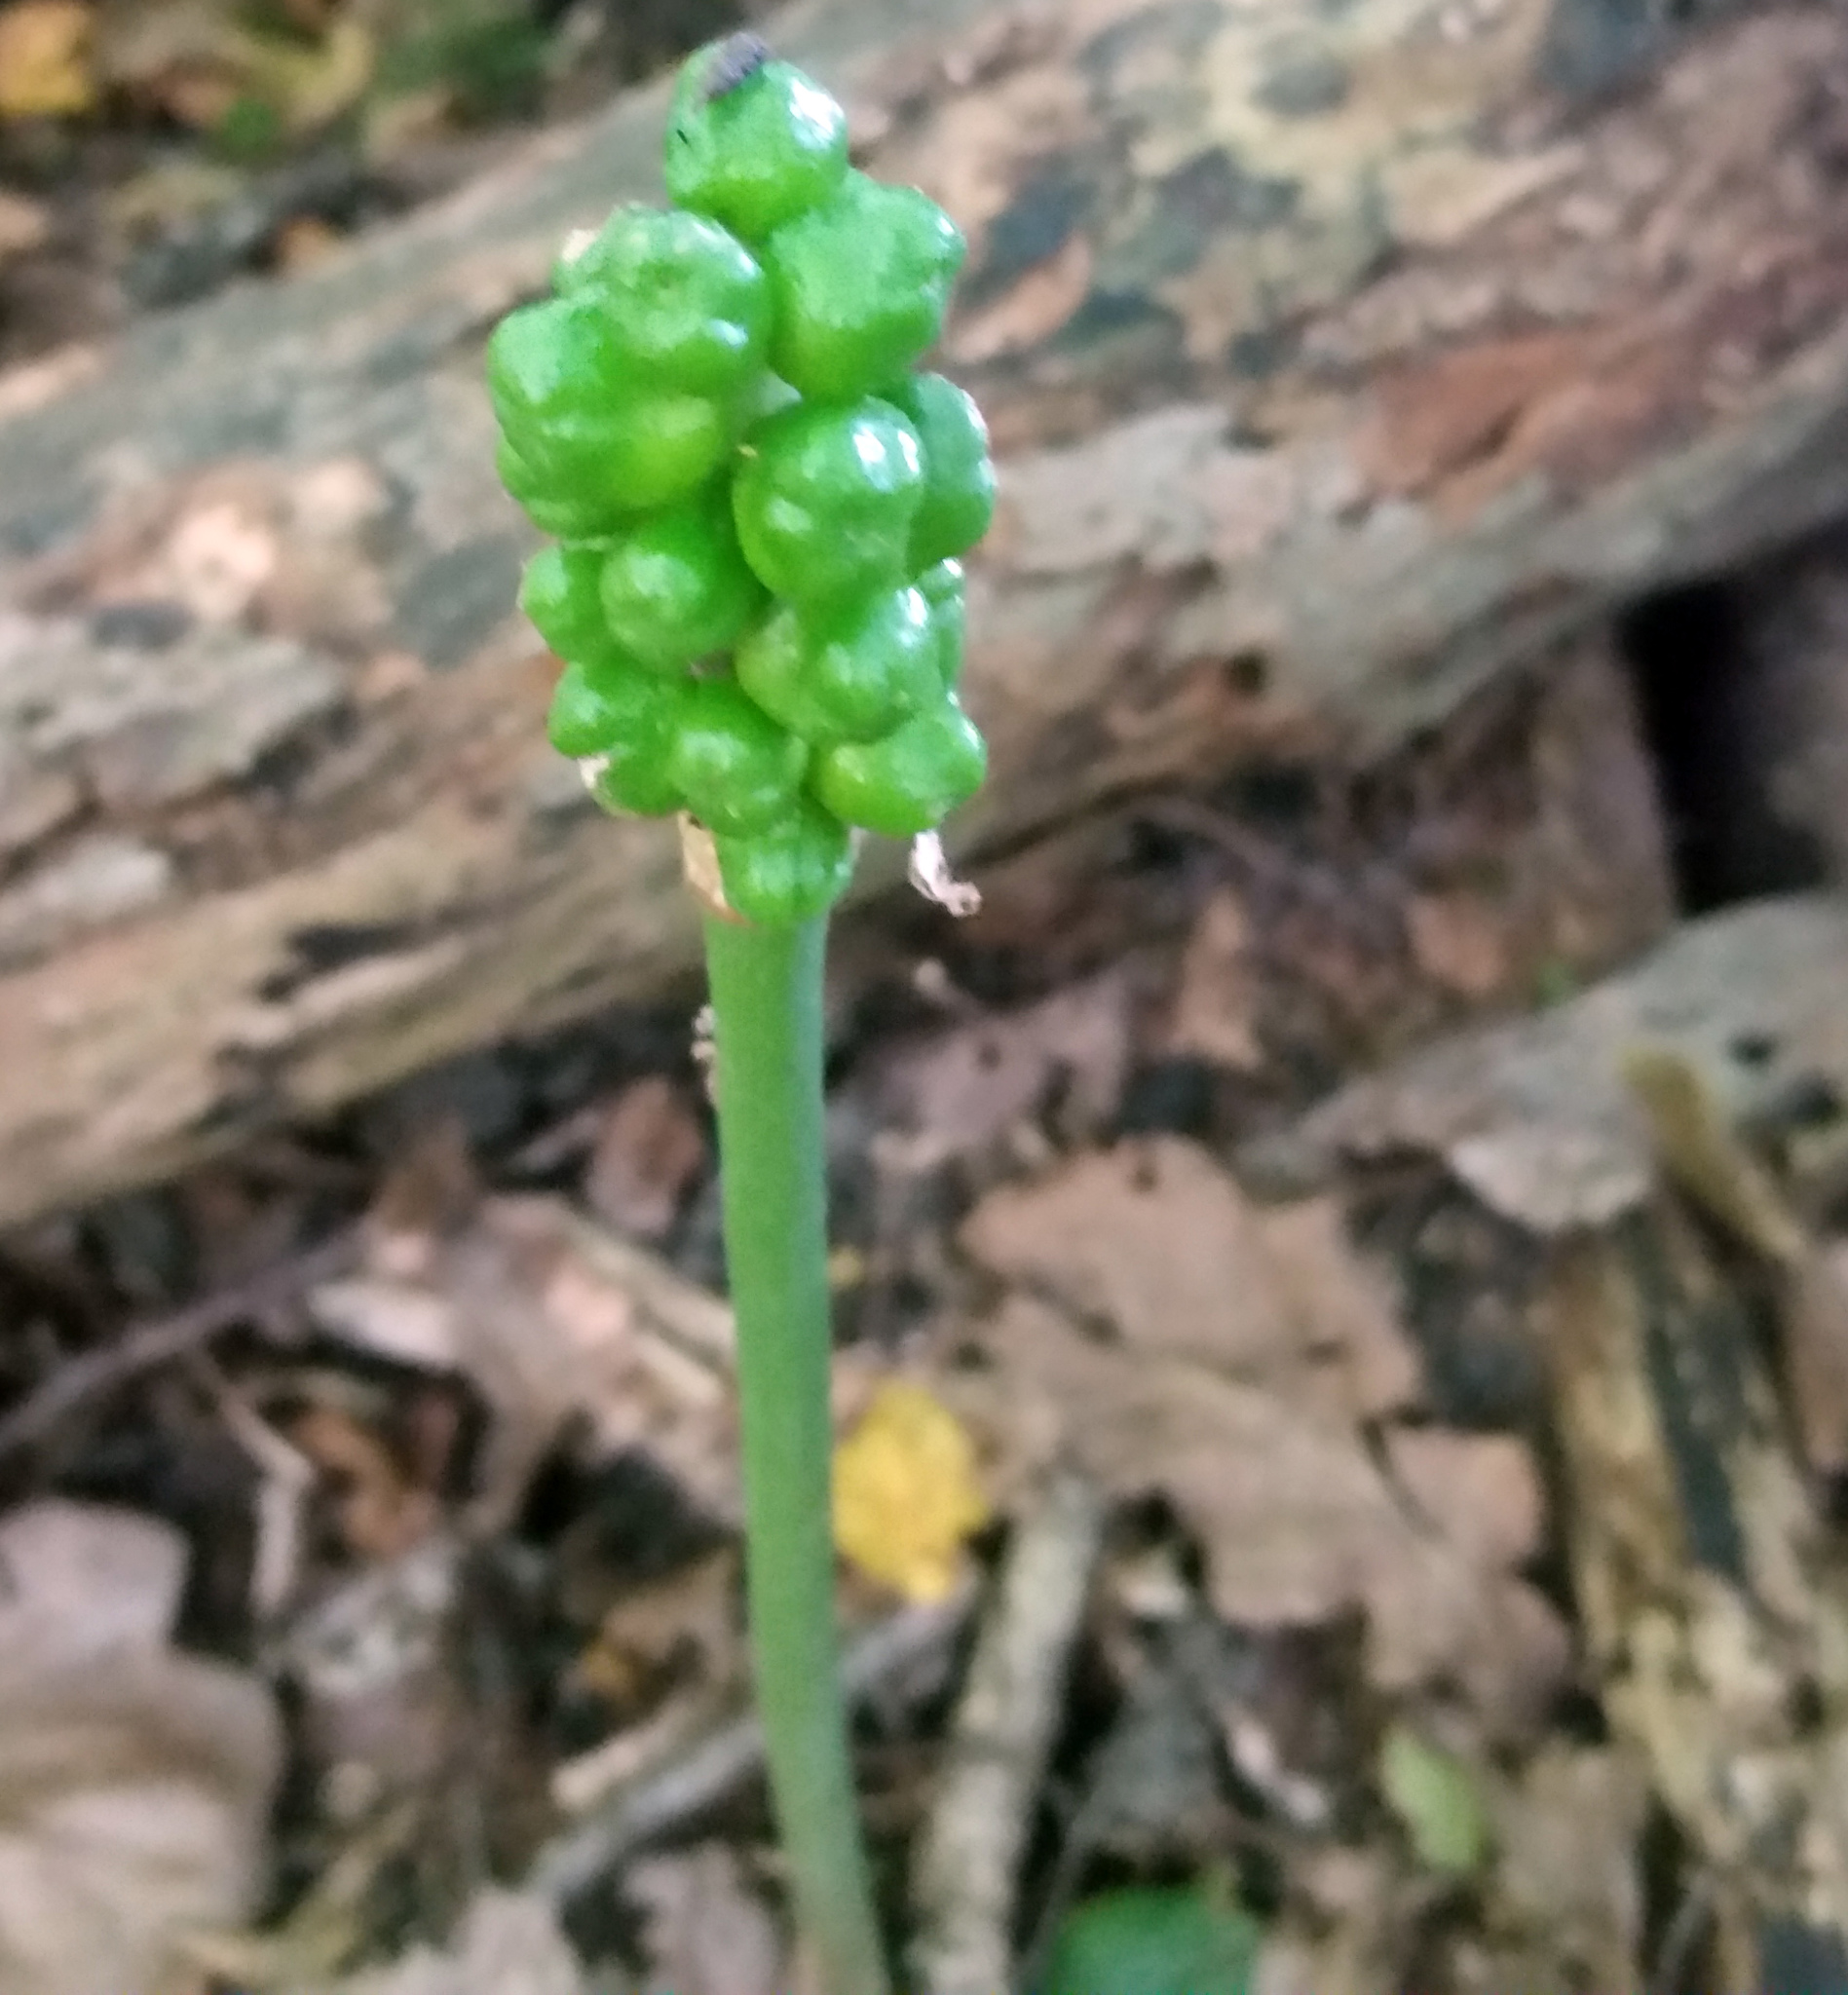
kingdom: Plantae
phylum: Tracheophyta
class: Liliopsida
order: Alismatales
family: Araceae
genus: Arum
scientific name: Arum maculatum
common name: Lords-and-ladies
